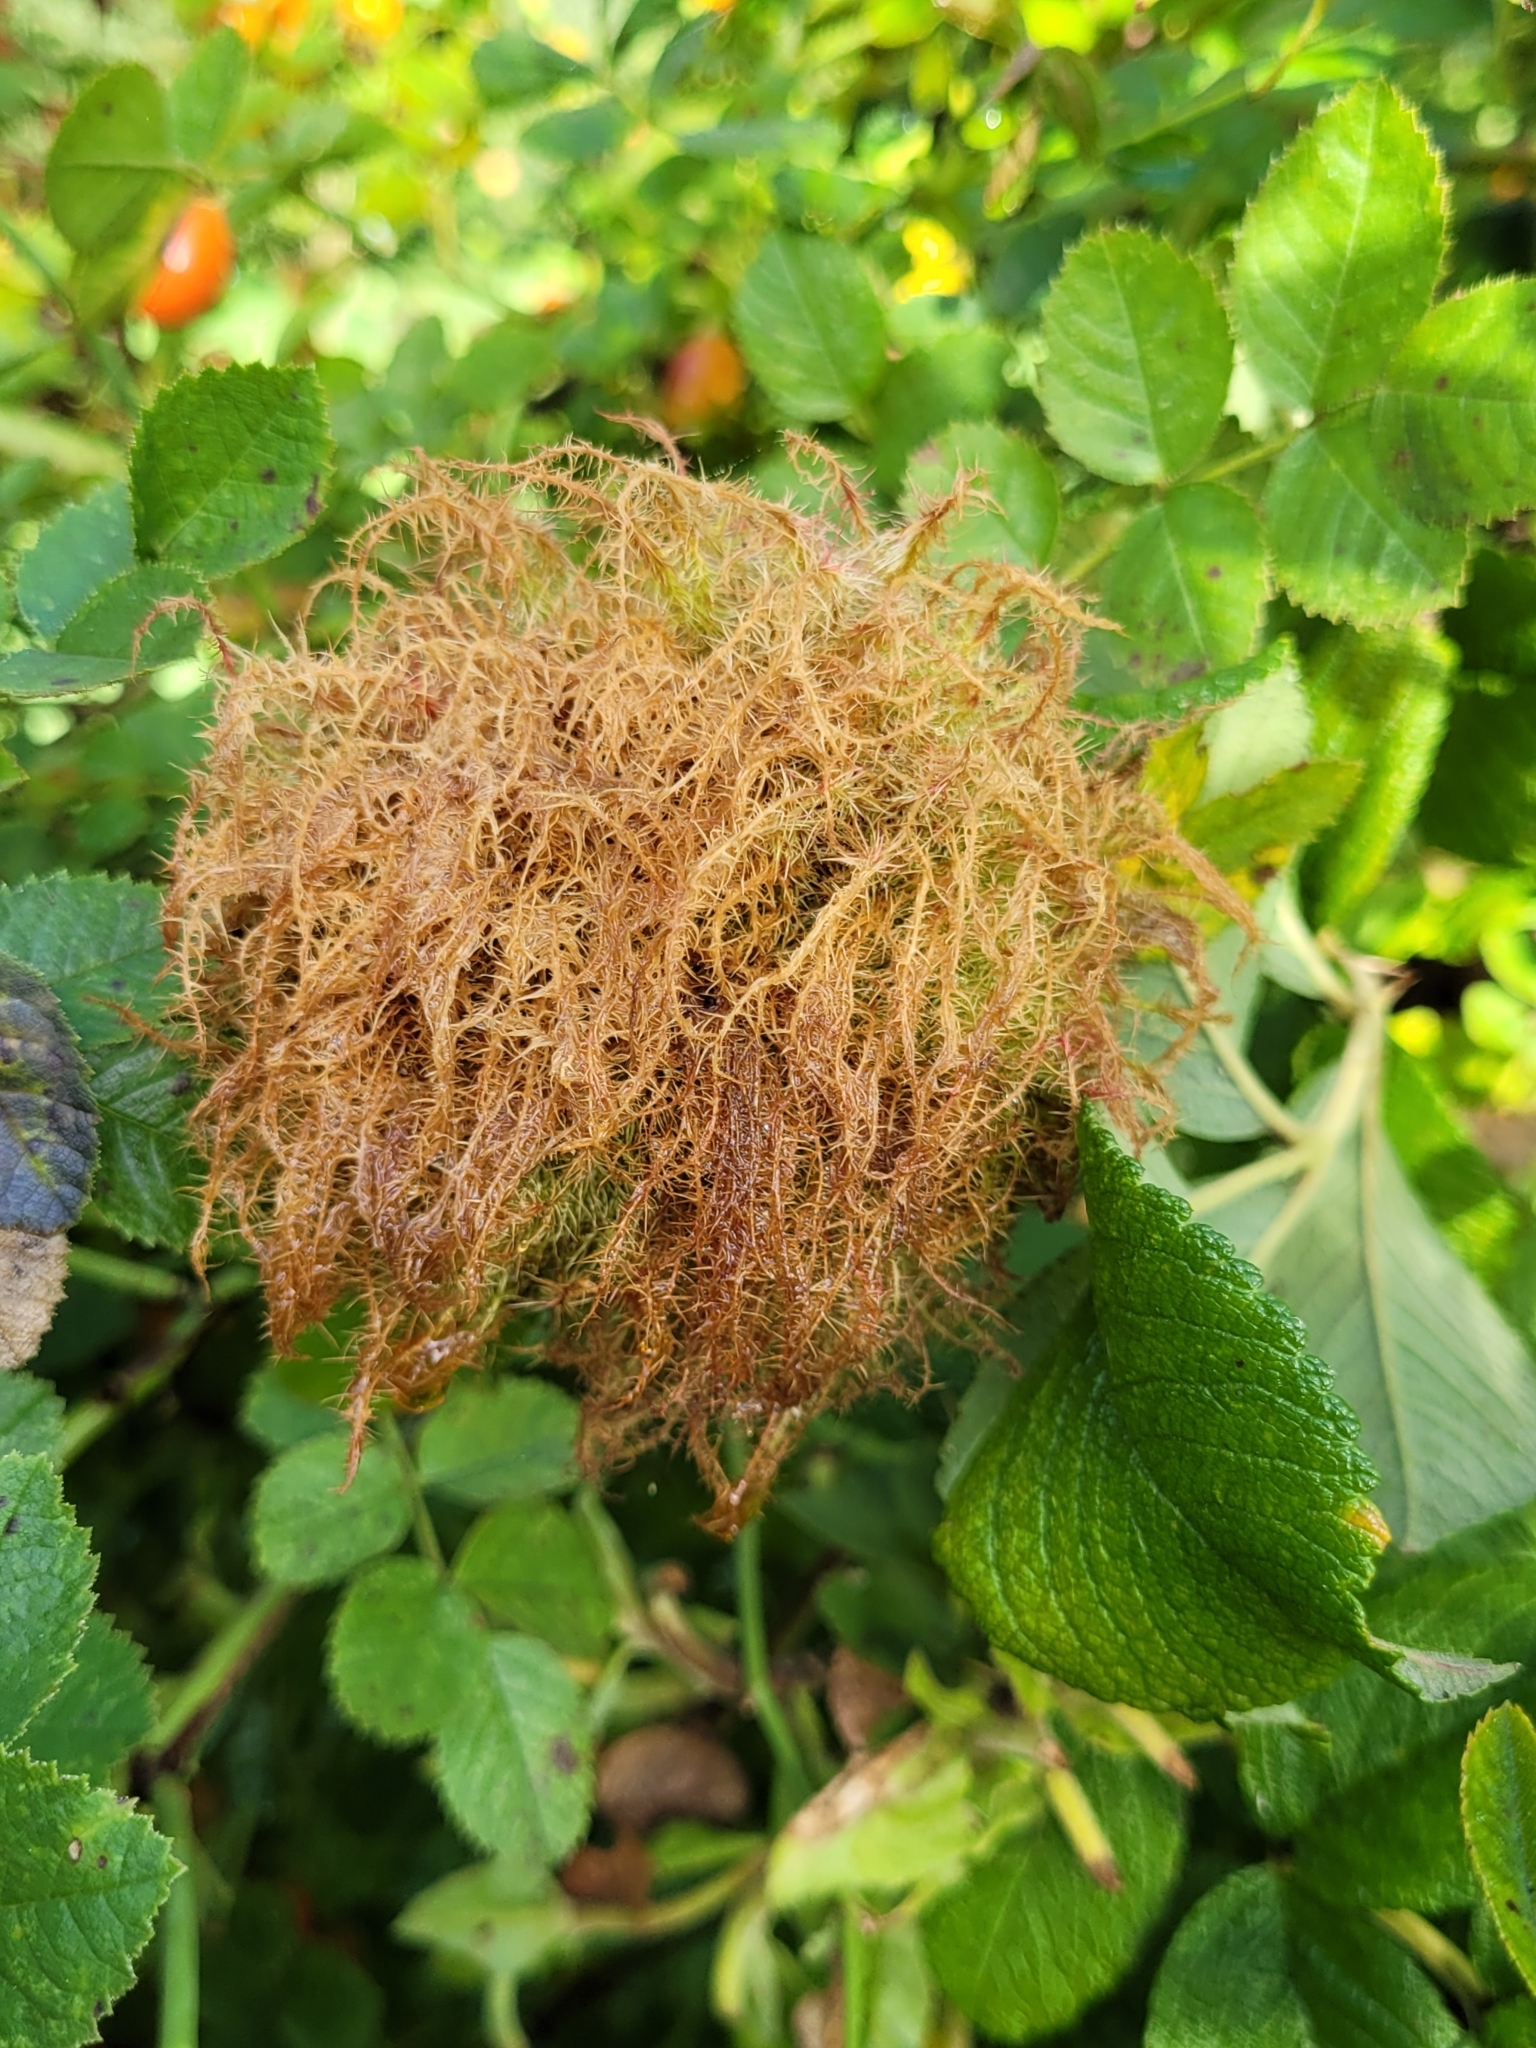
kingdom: Animalia
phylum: Arthropoda
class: Insecta
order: Hymenoptera
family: Cynipidae
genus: Diplolepis
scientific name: Diplolepis rosae
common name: Bedeguar gall
